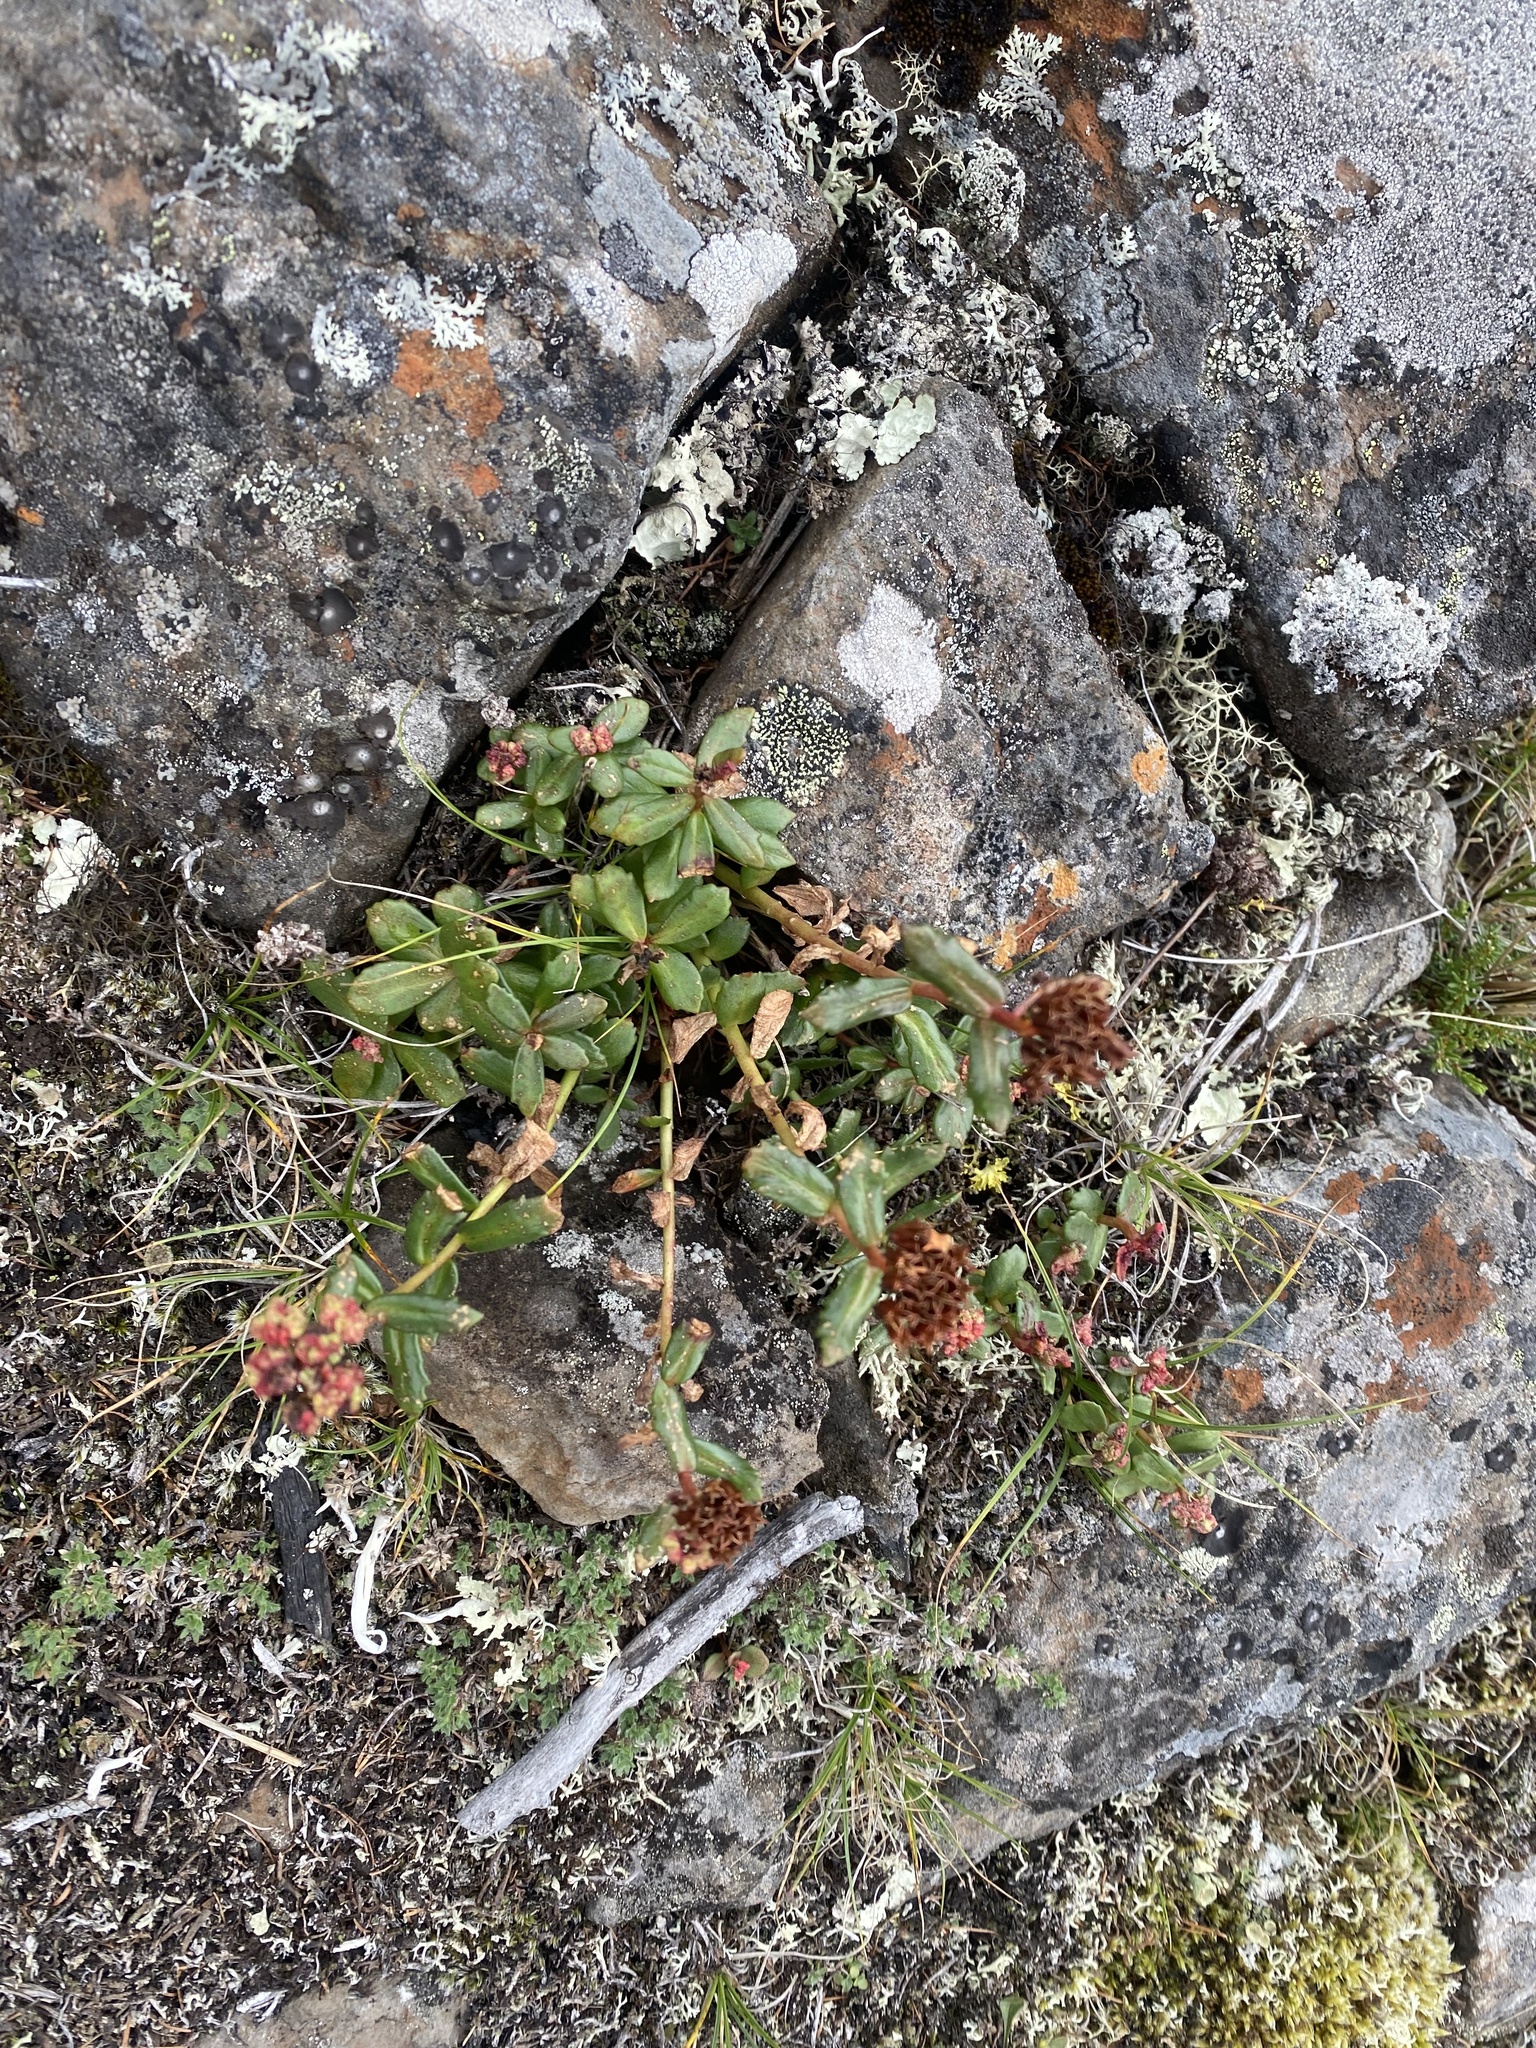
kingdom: Plantae
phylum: Tracheophyta
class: Magnoliopsida
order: Saxifragales
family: Crassulaceae
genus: Rhodiola
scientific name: Rhodiola rosea
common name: Roseroot
